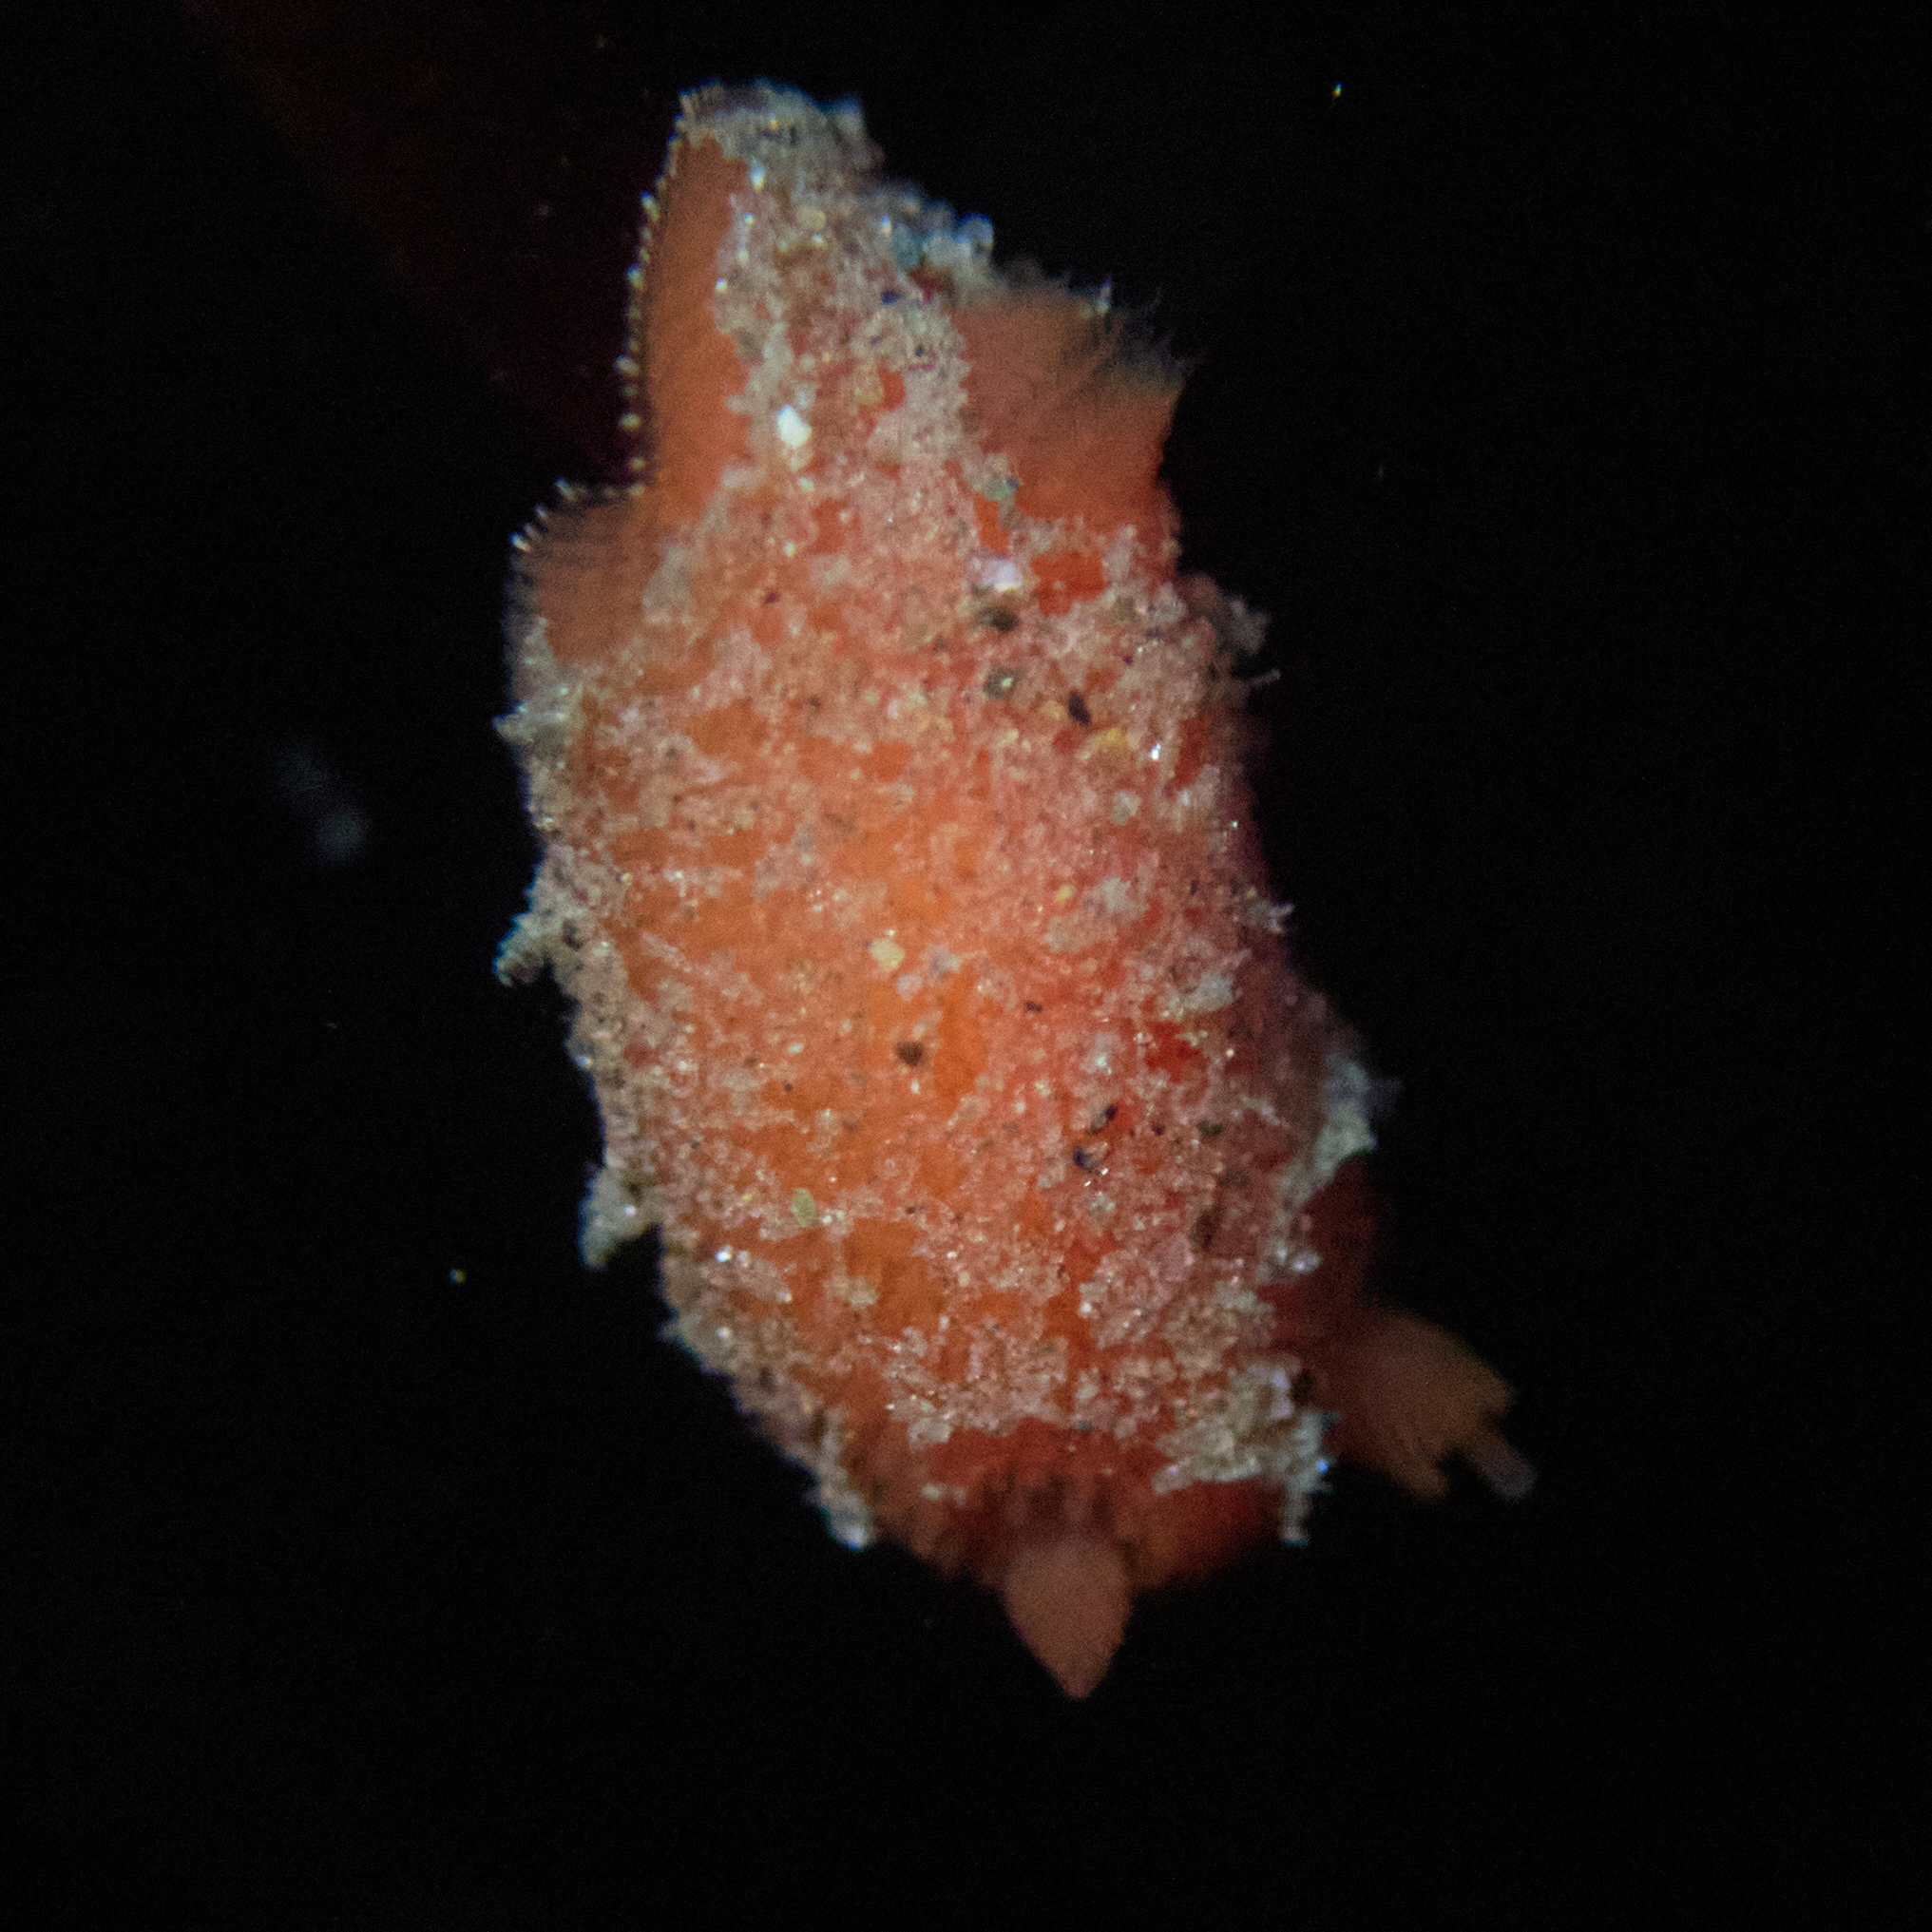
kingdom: Animalia
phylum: Mollusca
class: Gastropoda
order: Nudibranchia
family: Discodorididae
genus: Rostanga
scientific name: Rostanga pulchra
